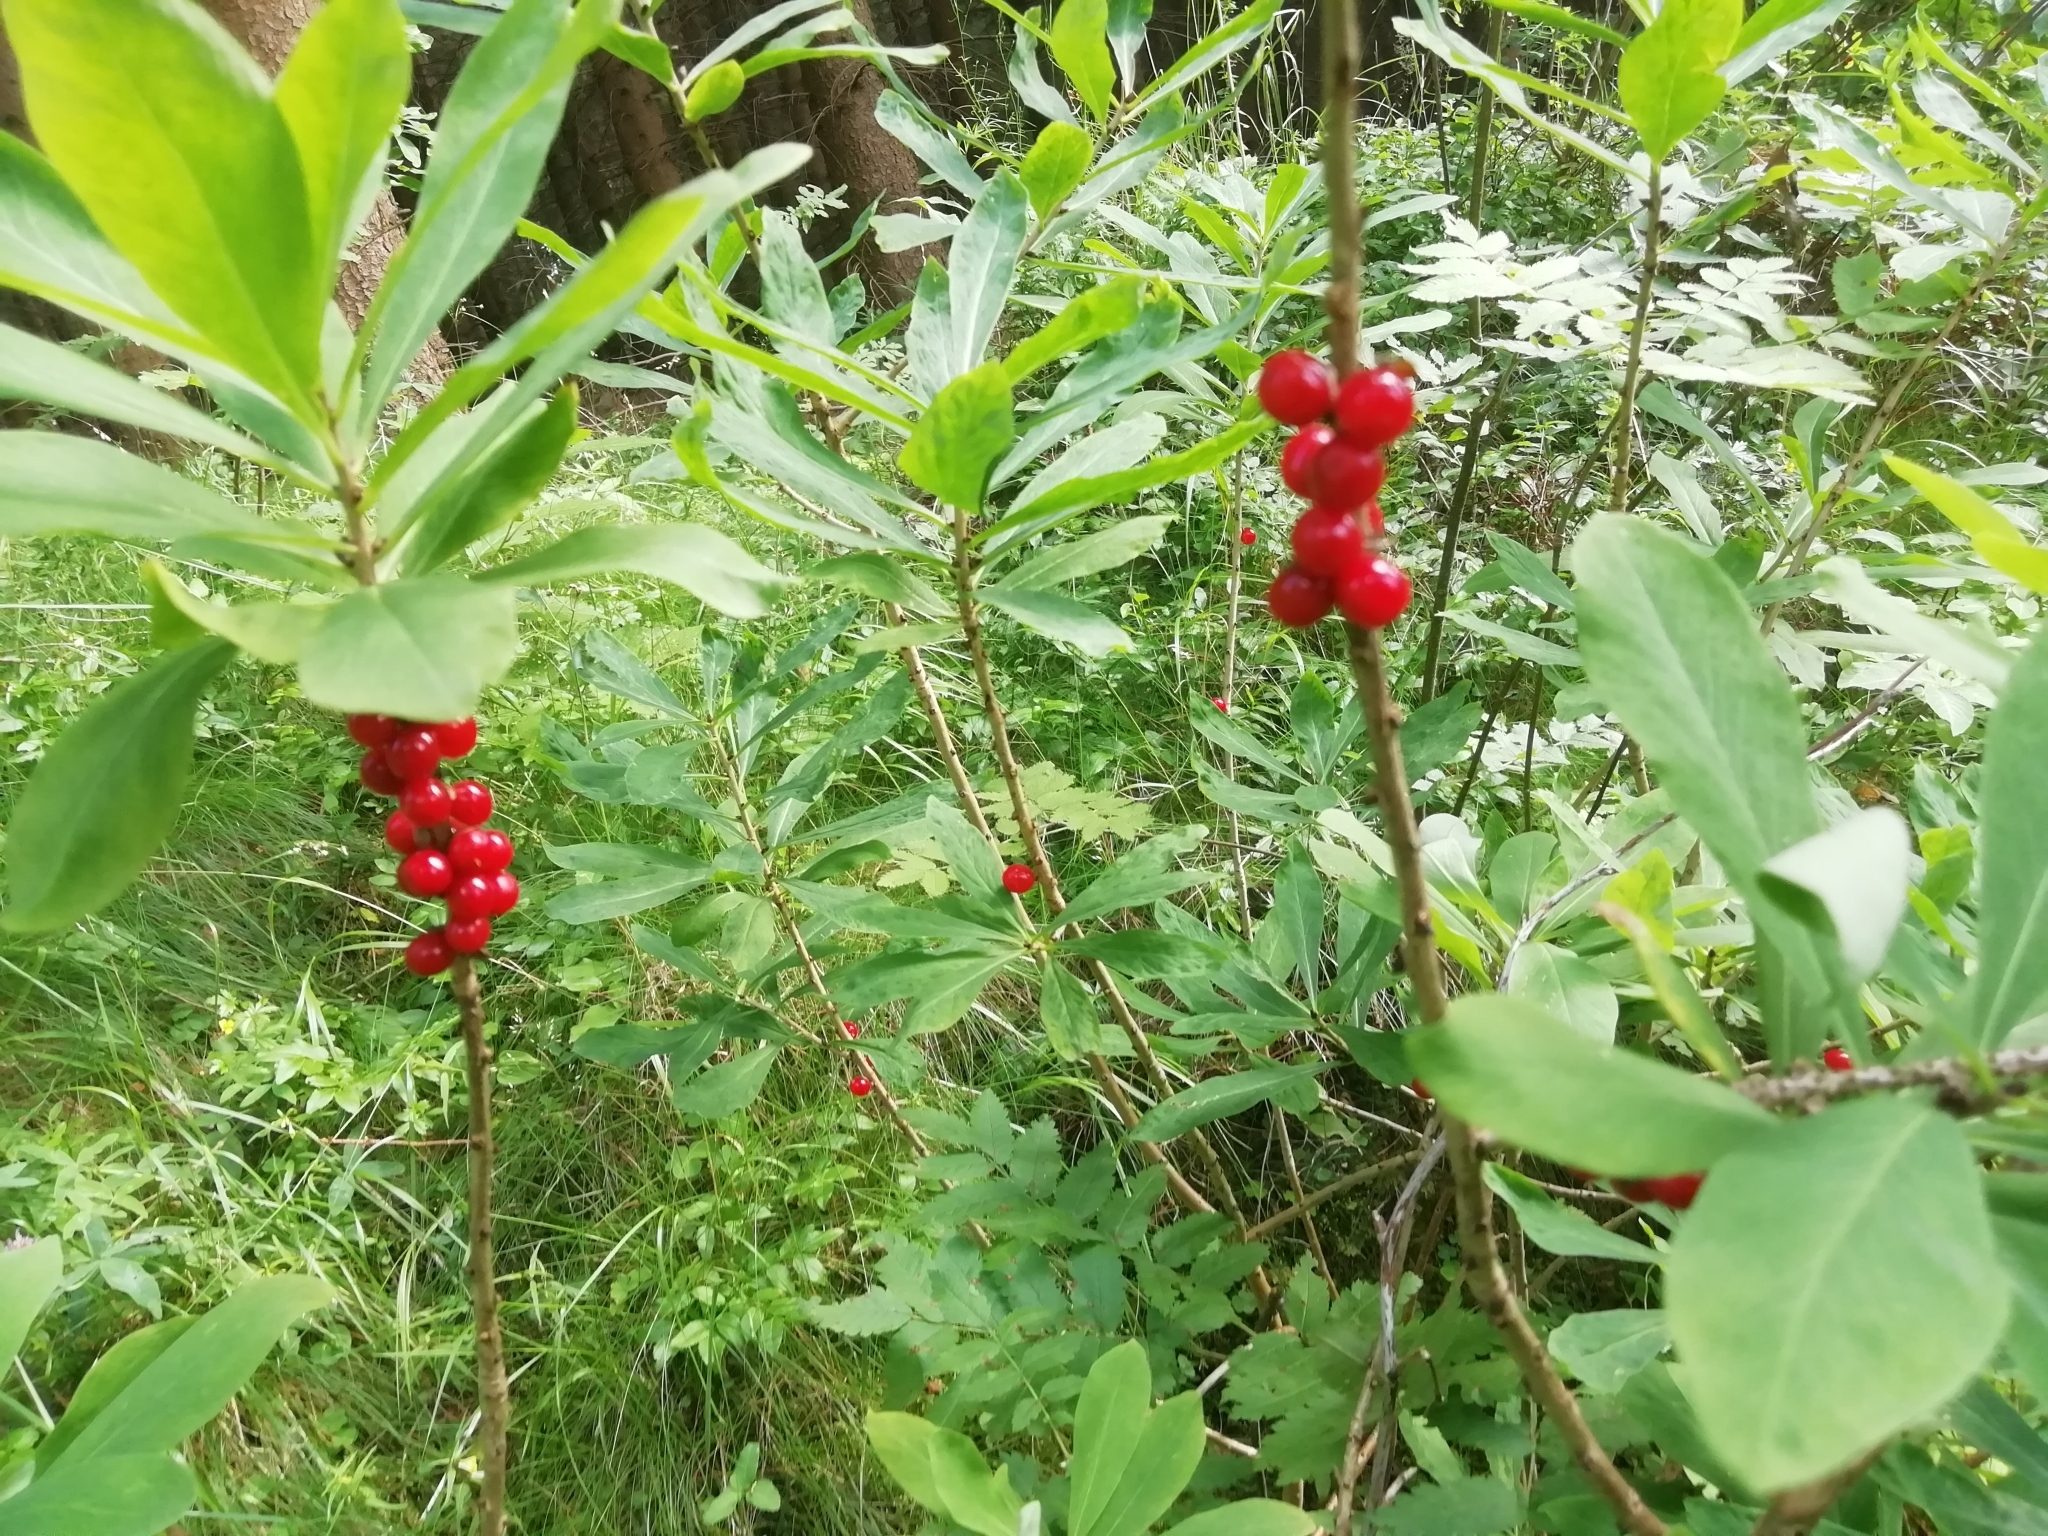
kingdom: Plantae
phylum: Tracheophyta
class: Magnoliopsida
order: Malvales
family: Thymelaeaceae
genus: Daphne
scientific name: Daphne mezereum
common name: Mezereon
